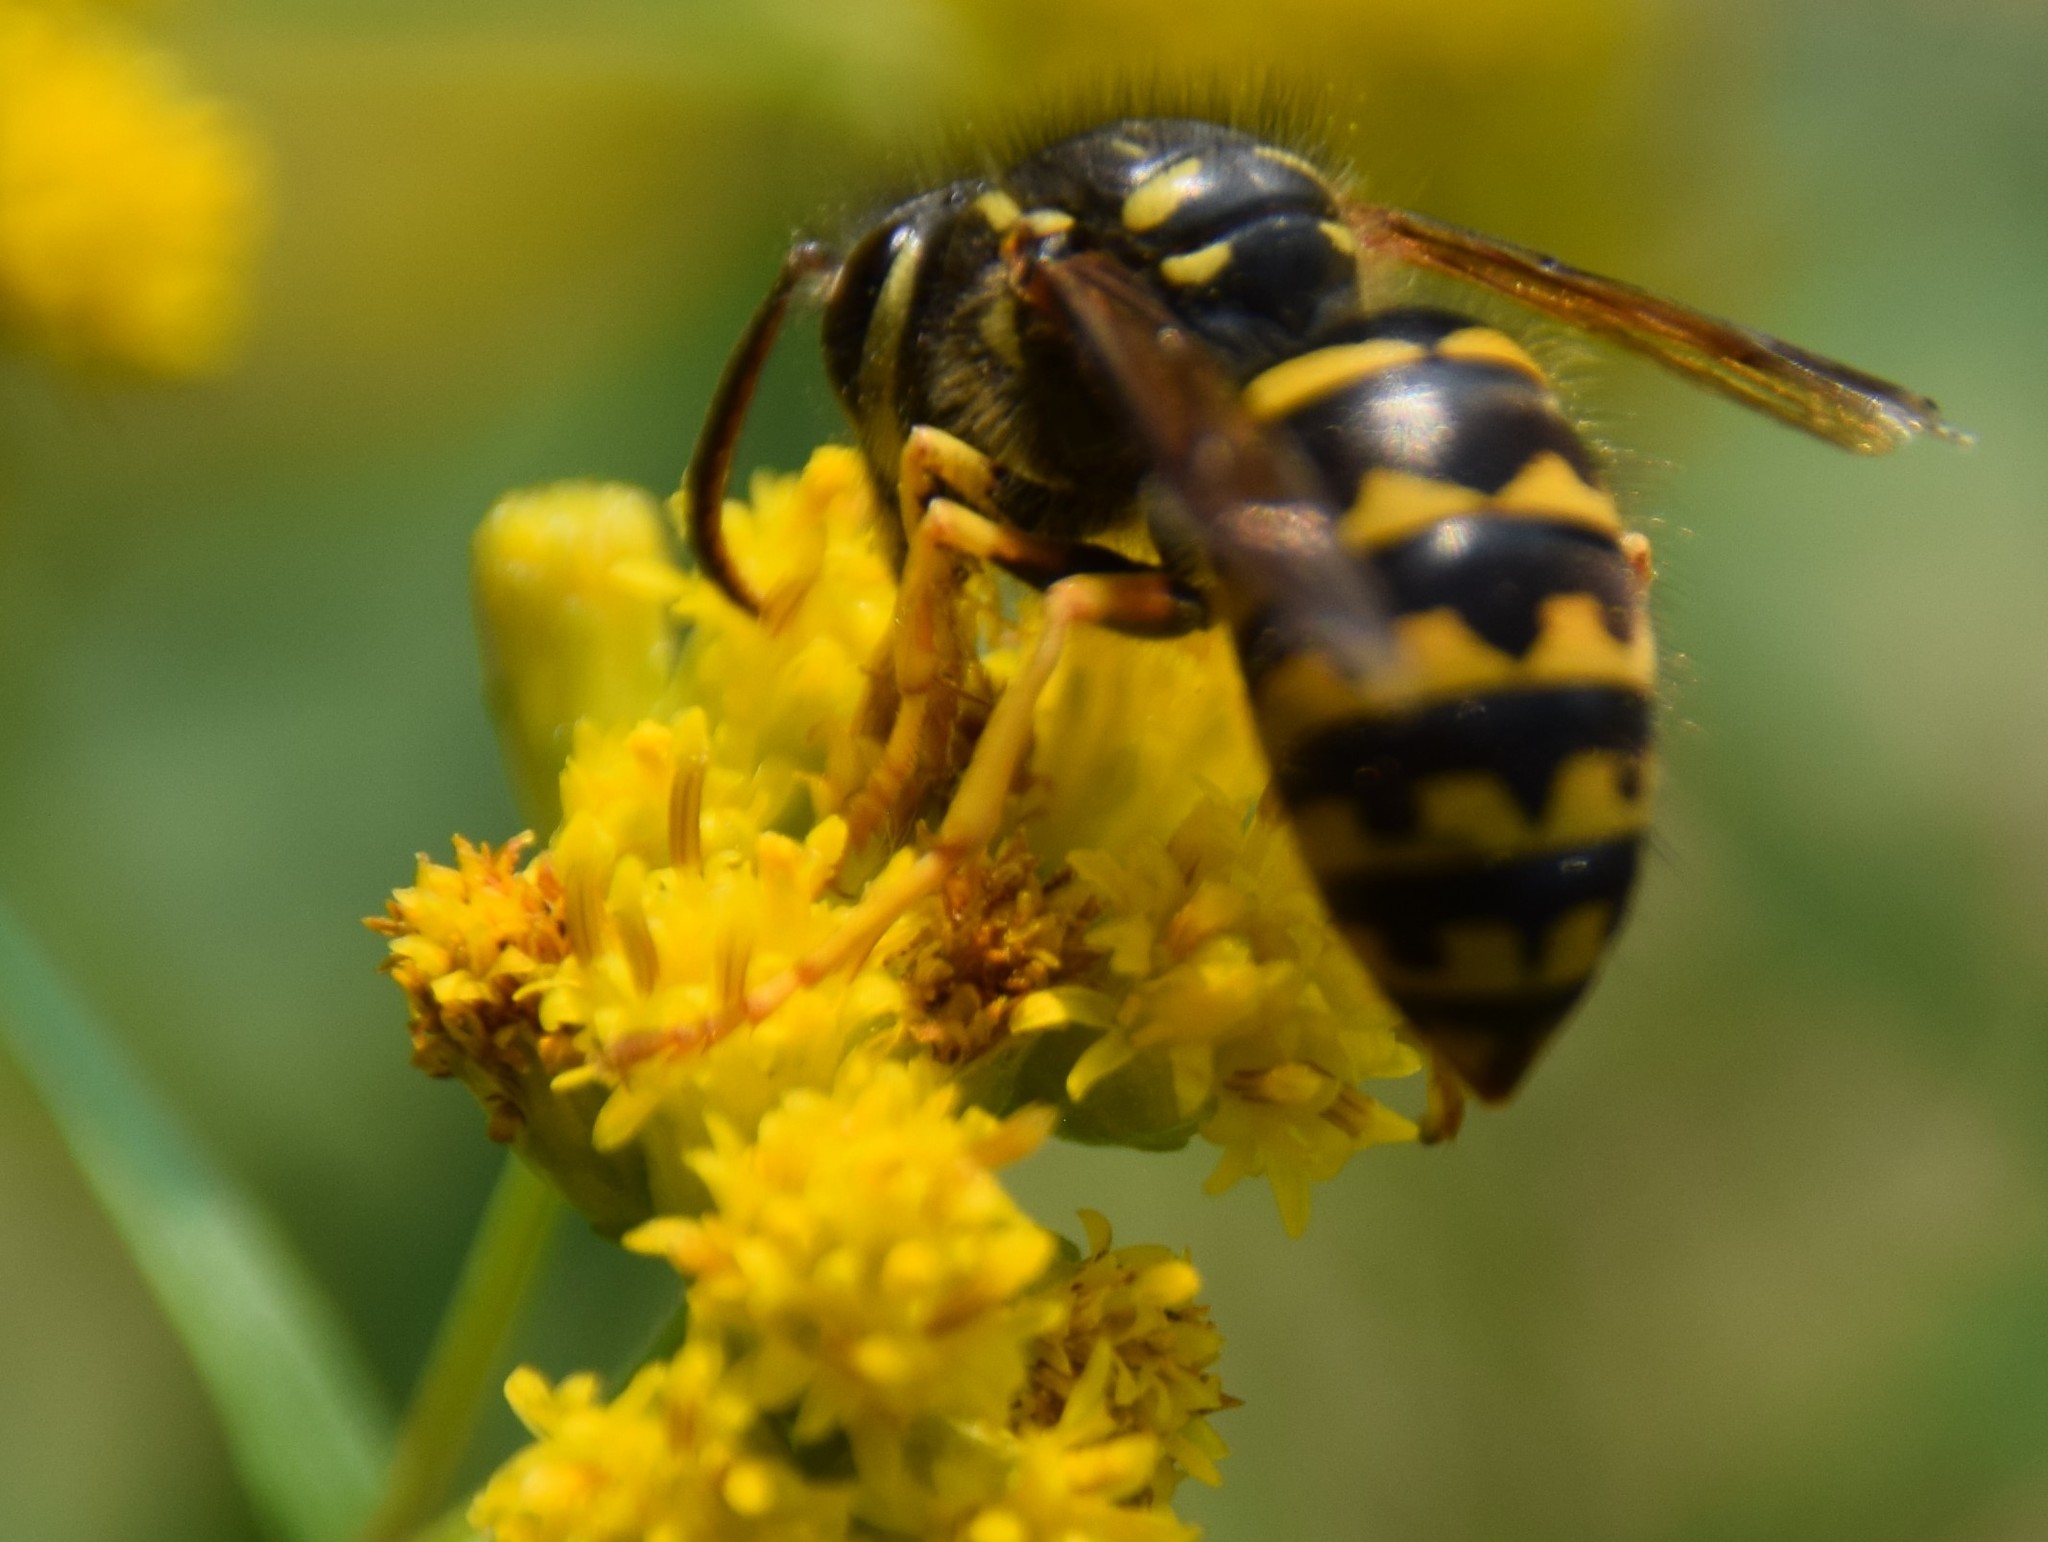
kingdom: Animalia
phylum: Arthropoda
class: Insecta
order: Hymenoptera
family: Vespidae
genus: Dolichovespula
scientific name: Dolichovespula arenaria
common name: Aerial yellowjacket
